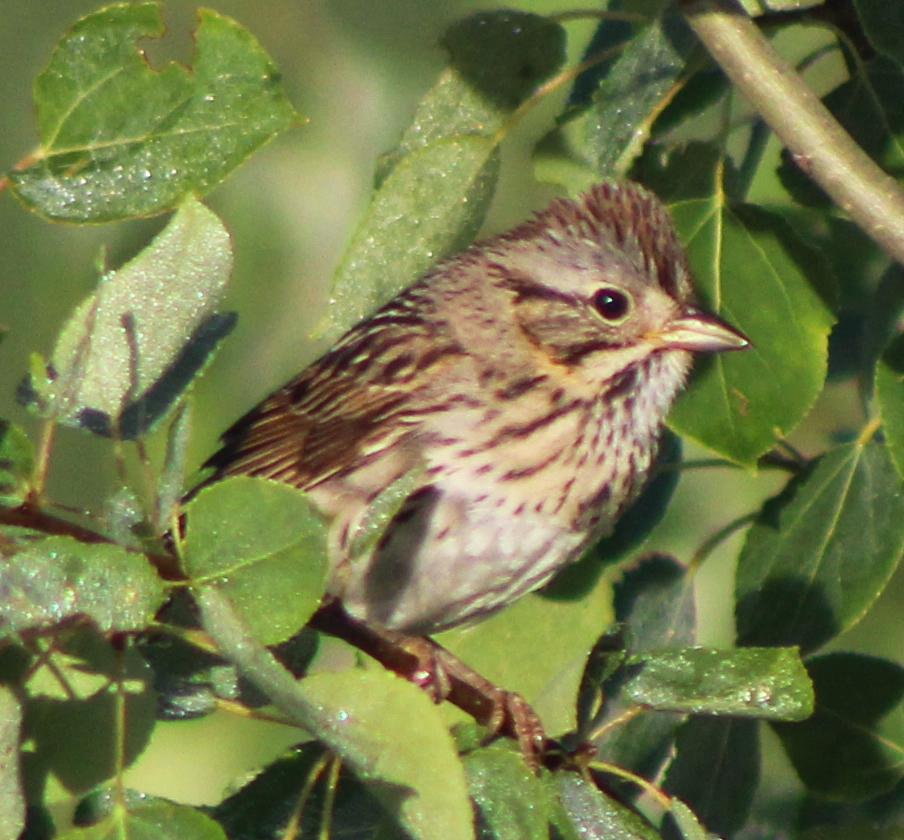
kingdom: Animalia
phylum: Chordata
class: Aves
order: Passeriformes
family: Passerellidae
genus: Melospiza
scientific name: Melospiza lincolnii
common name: Lincoln's sparrow
